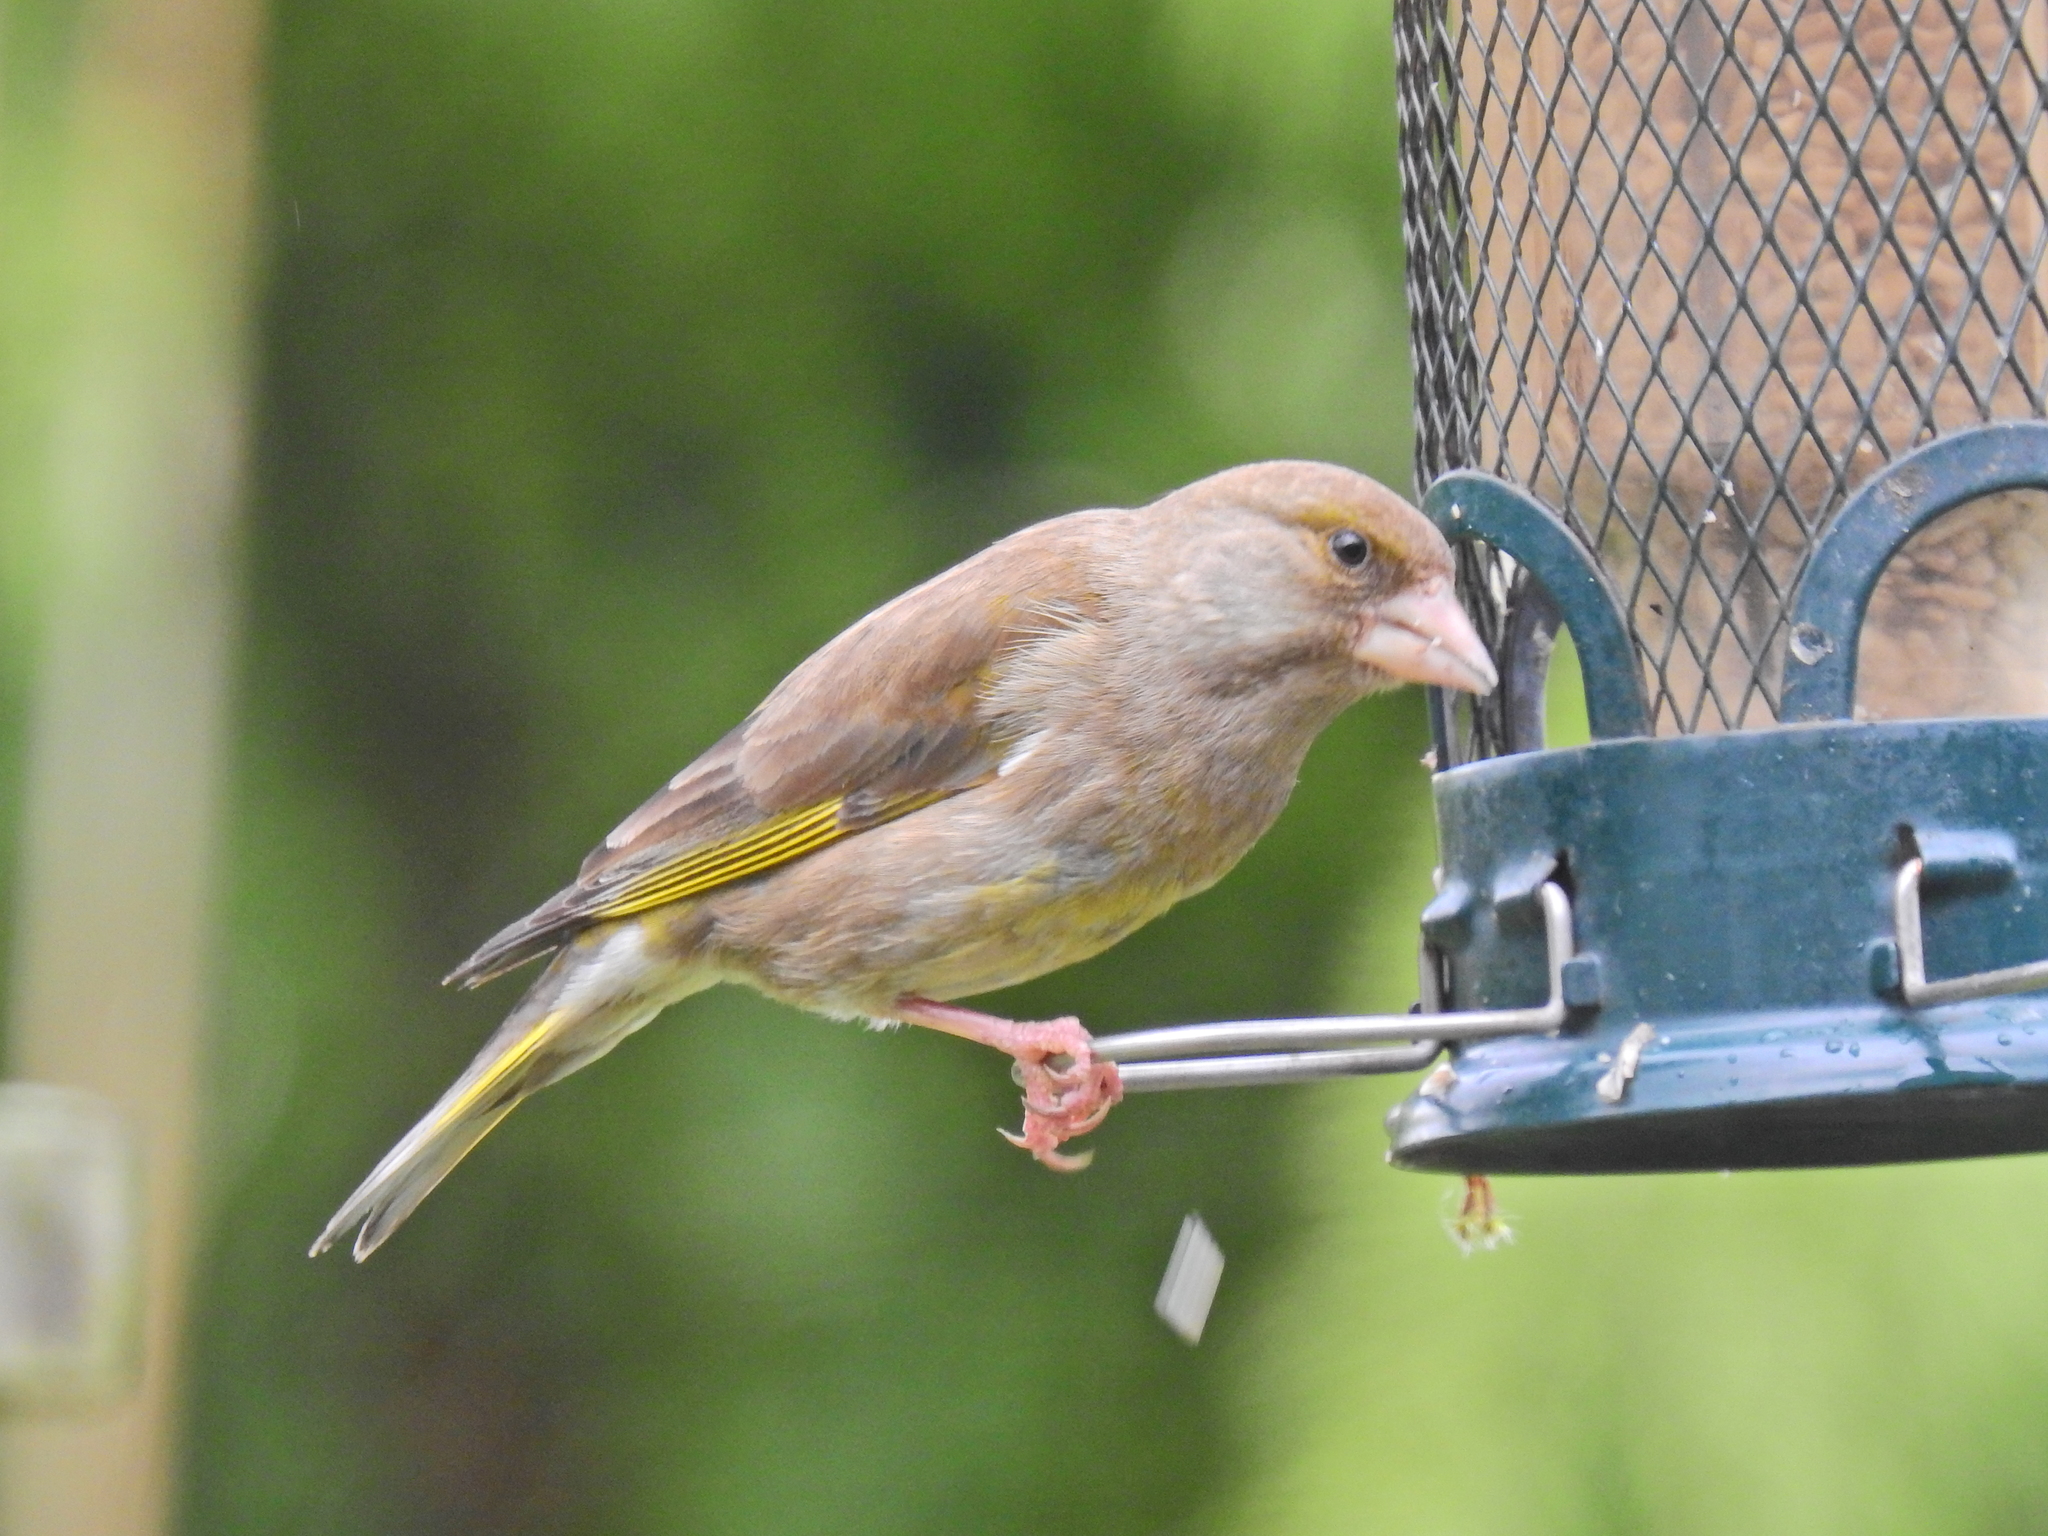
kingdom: Plantae
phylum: Tracheophyta
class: Liliopsida
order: Poales
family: Poaceae
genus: Chloris
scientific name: Chloris chloris
